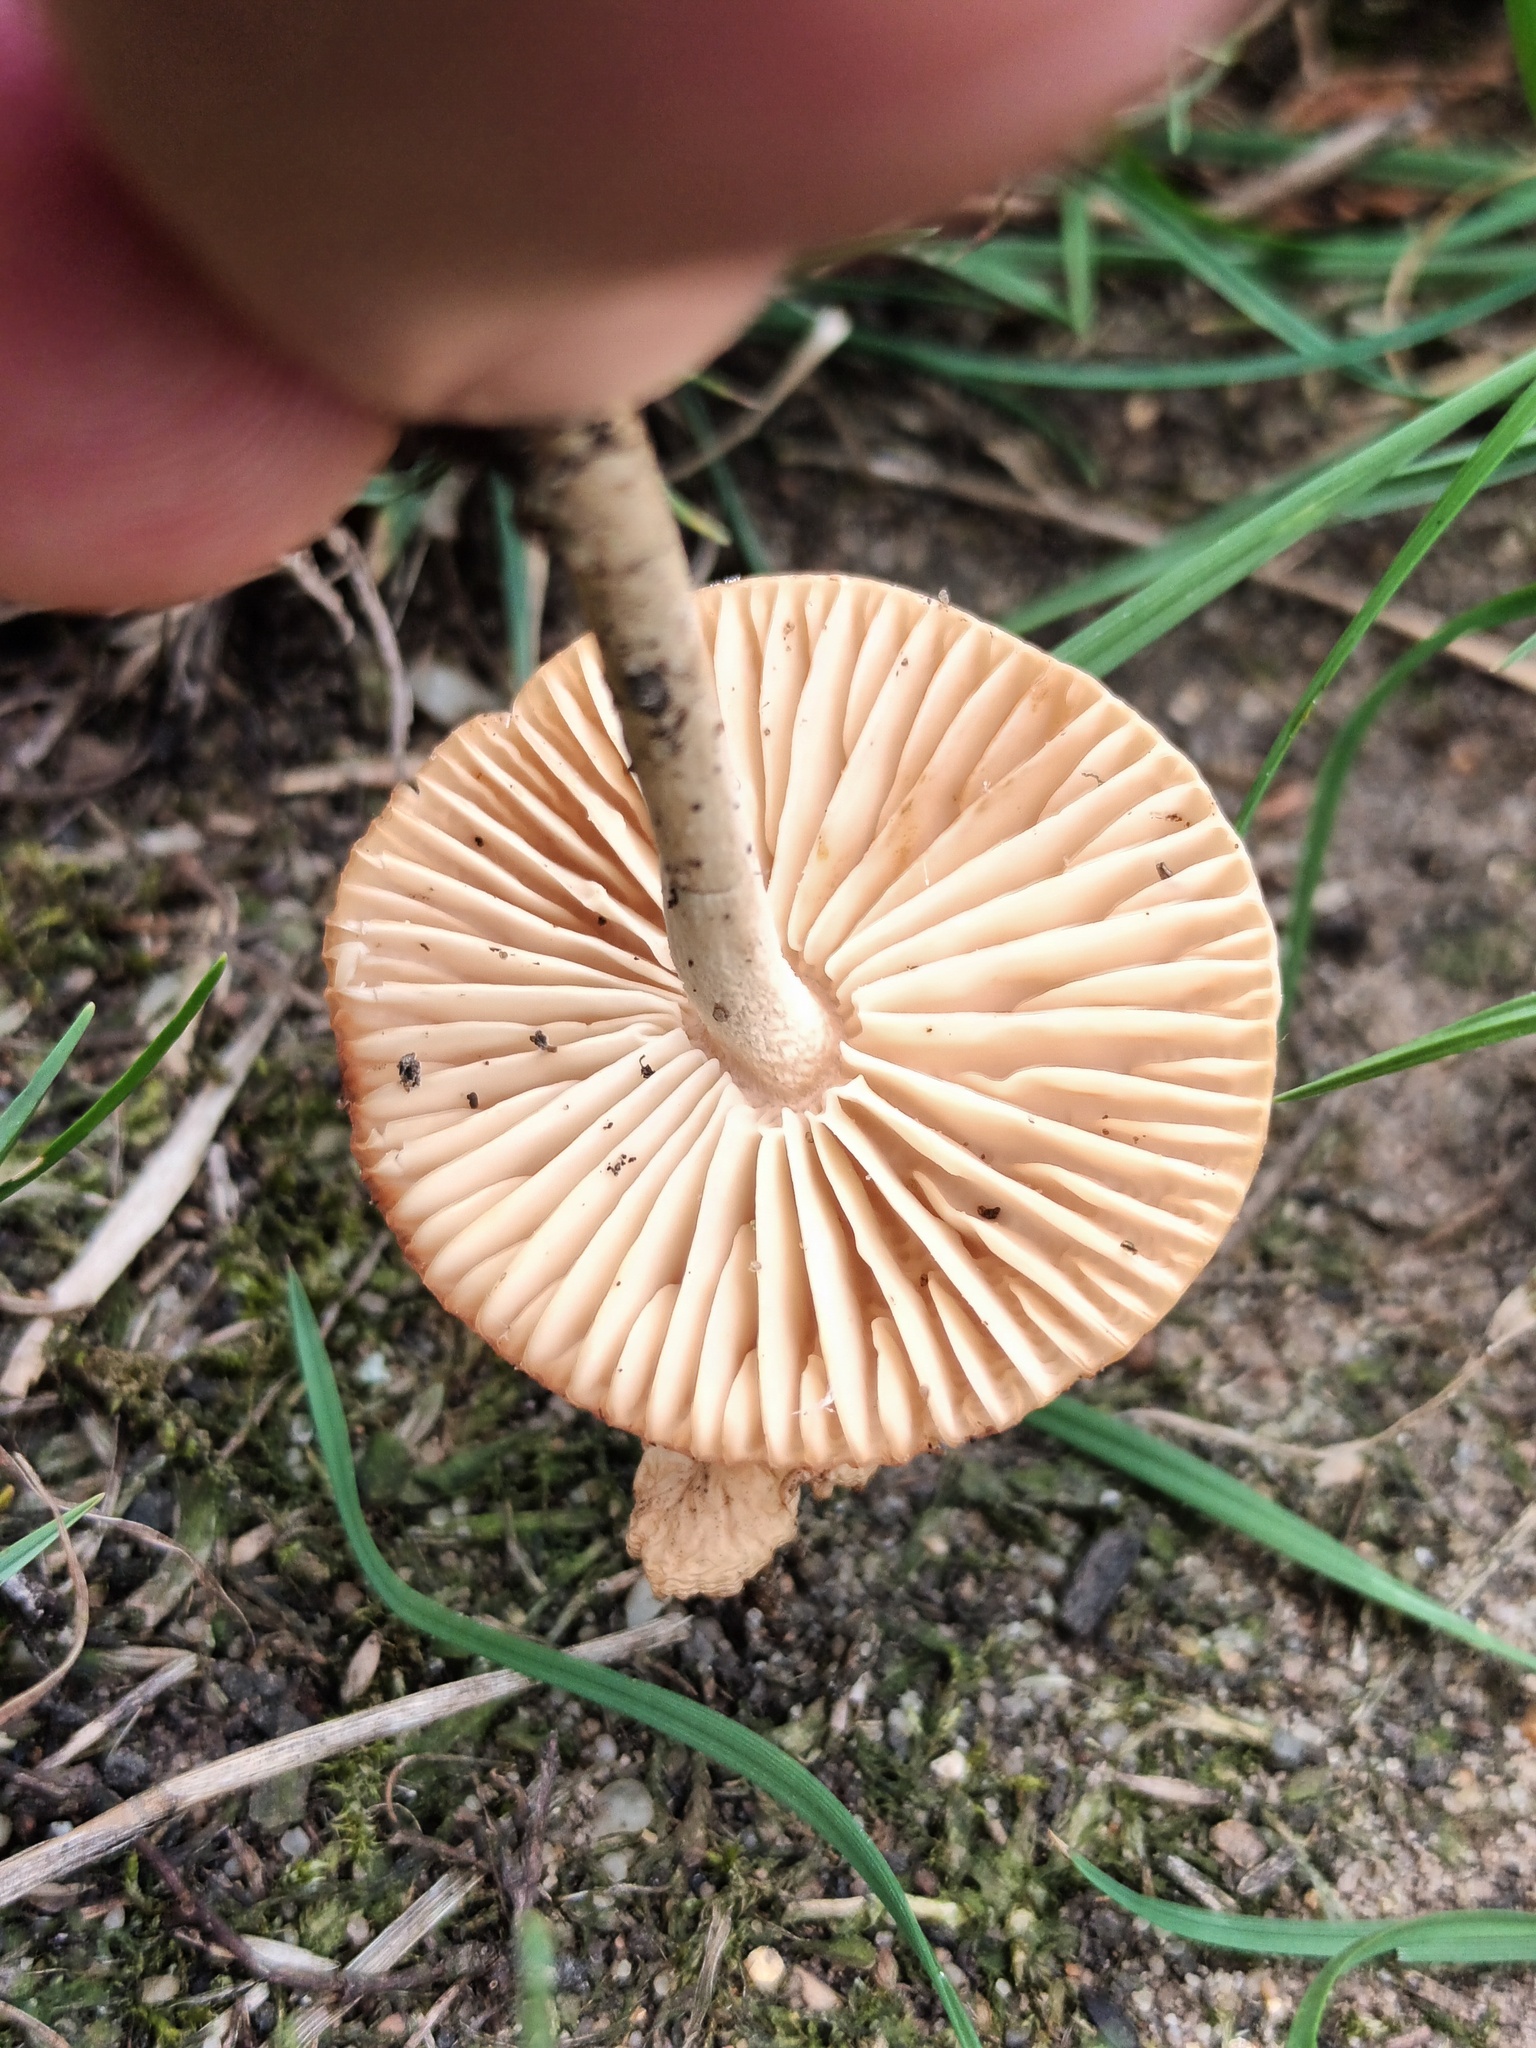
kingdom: Fungi
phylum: Basidiomycota
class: Agaricomycetes
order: Agaricales
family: Marasmiaceae
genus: Marasmius
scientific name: Marasmius oreades
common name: Fairy ring champignon
